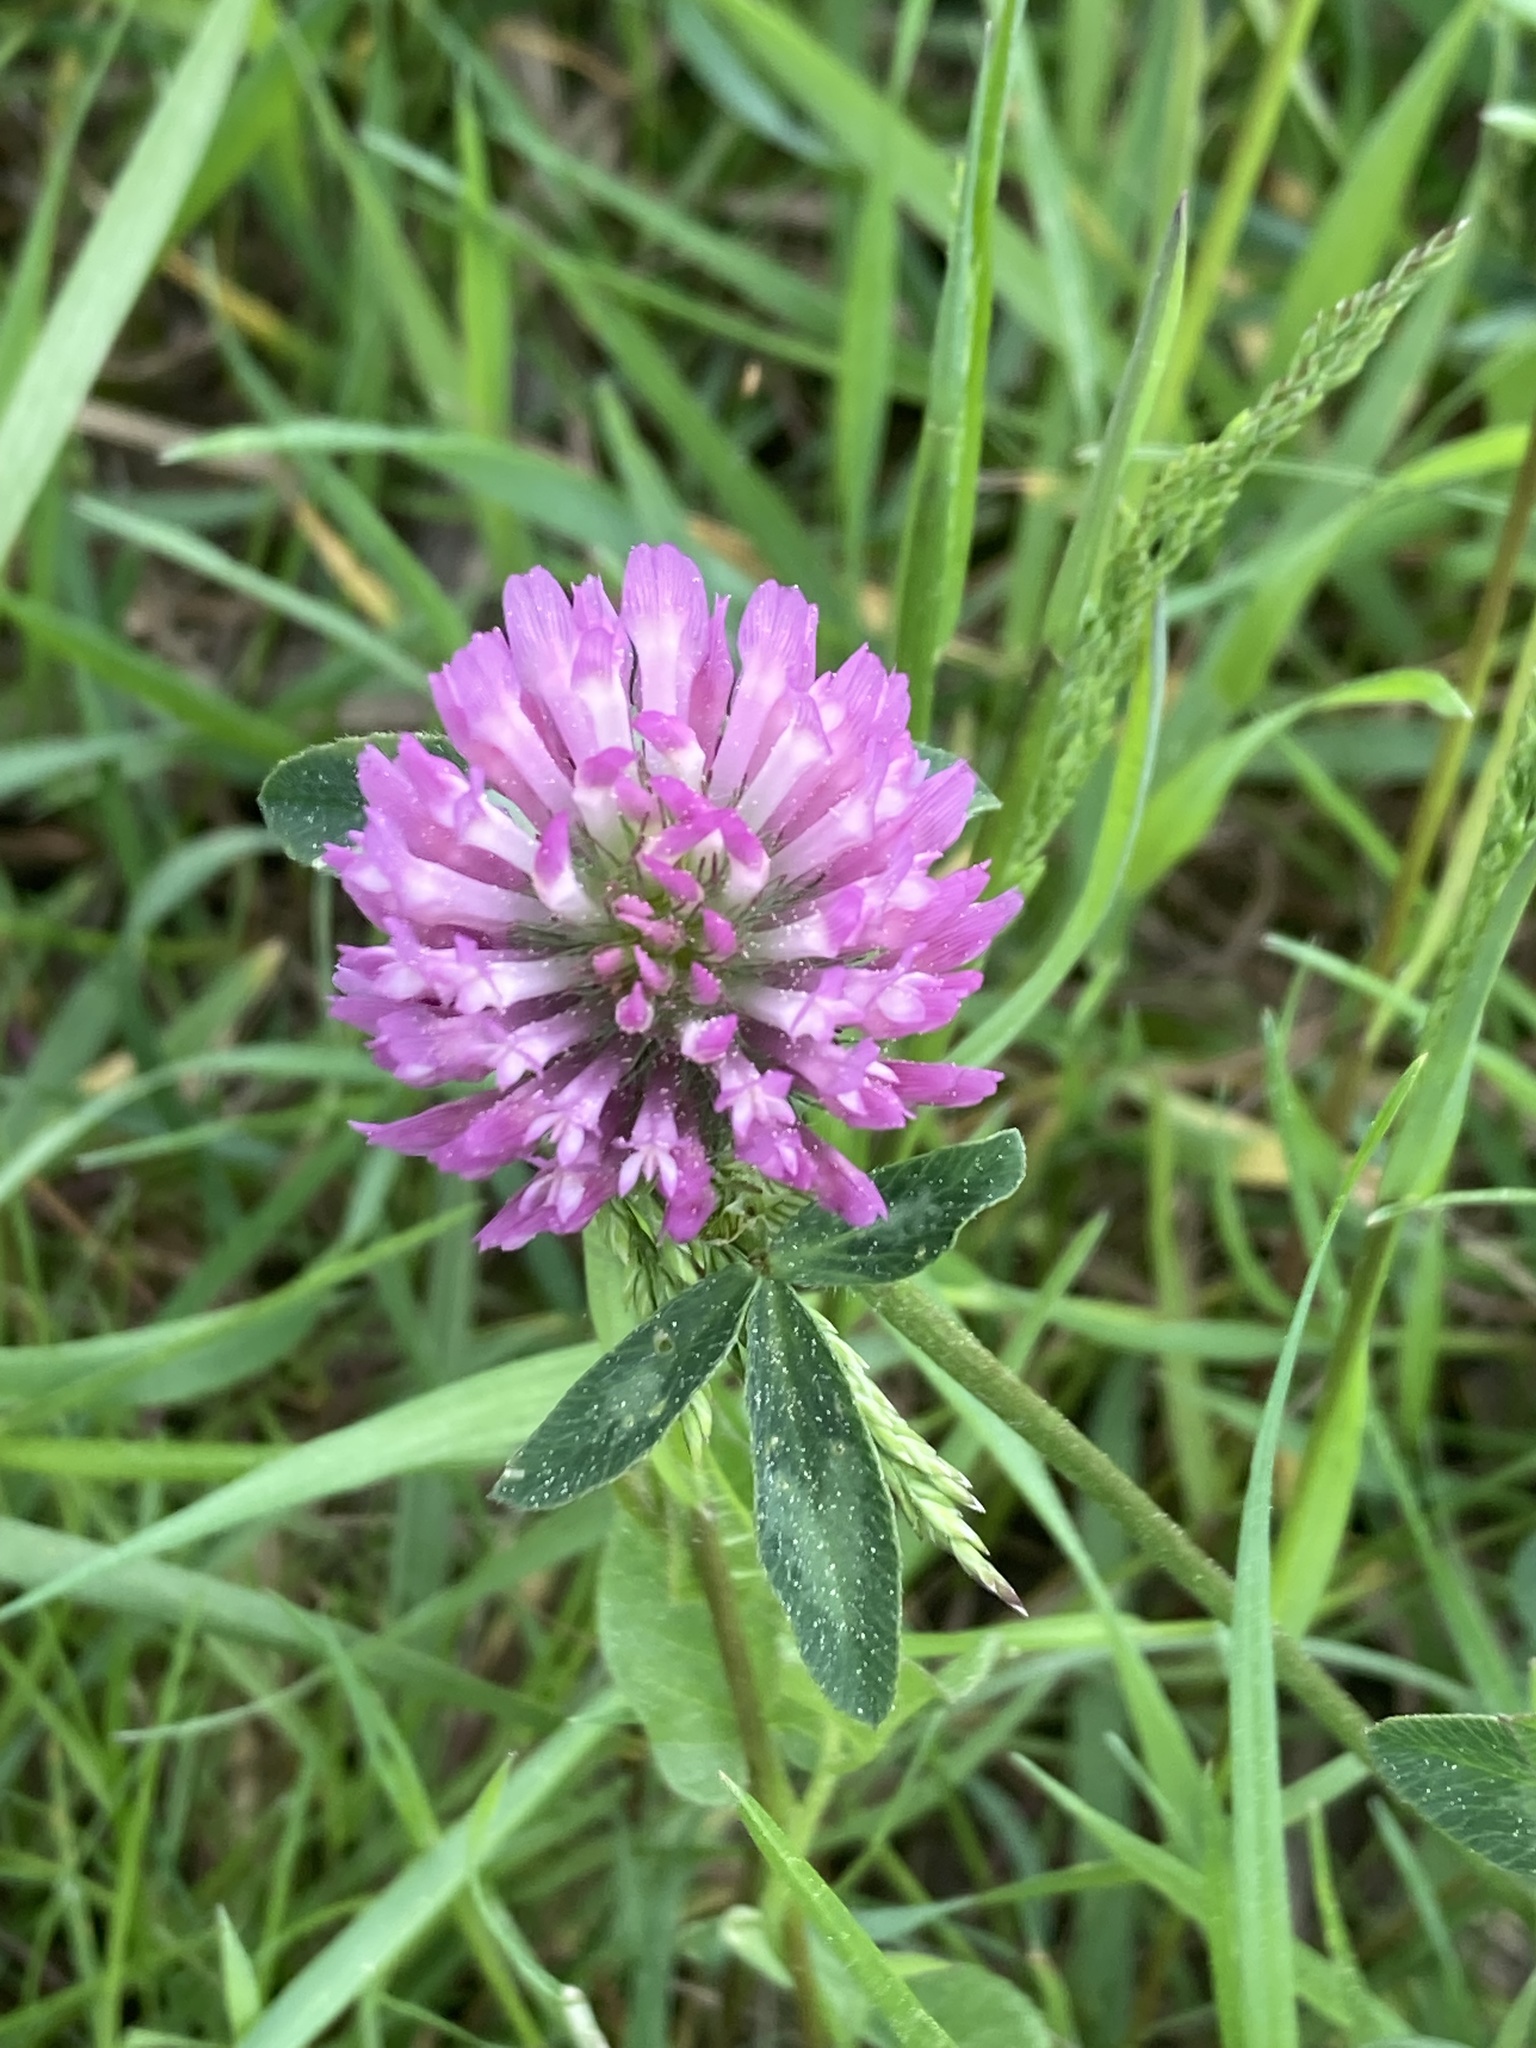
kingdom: Plantae
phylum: Tracheophyta
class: Magnoliopsida
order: Fabales
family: Fabaceae
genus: Trifolium
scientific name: Trifolium pratense
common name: Red clover
